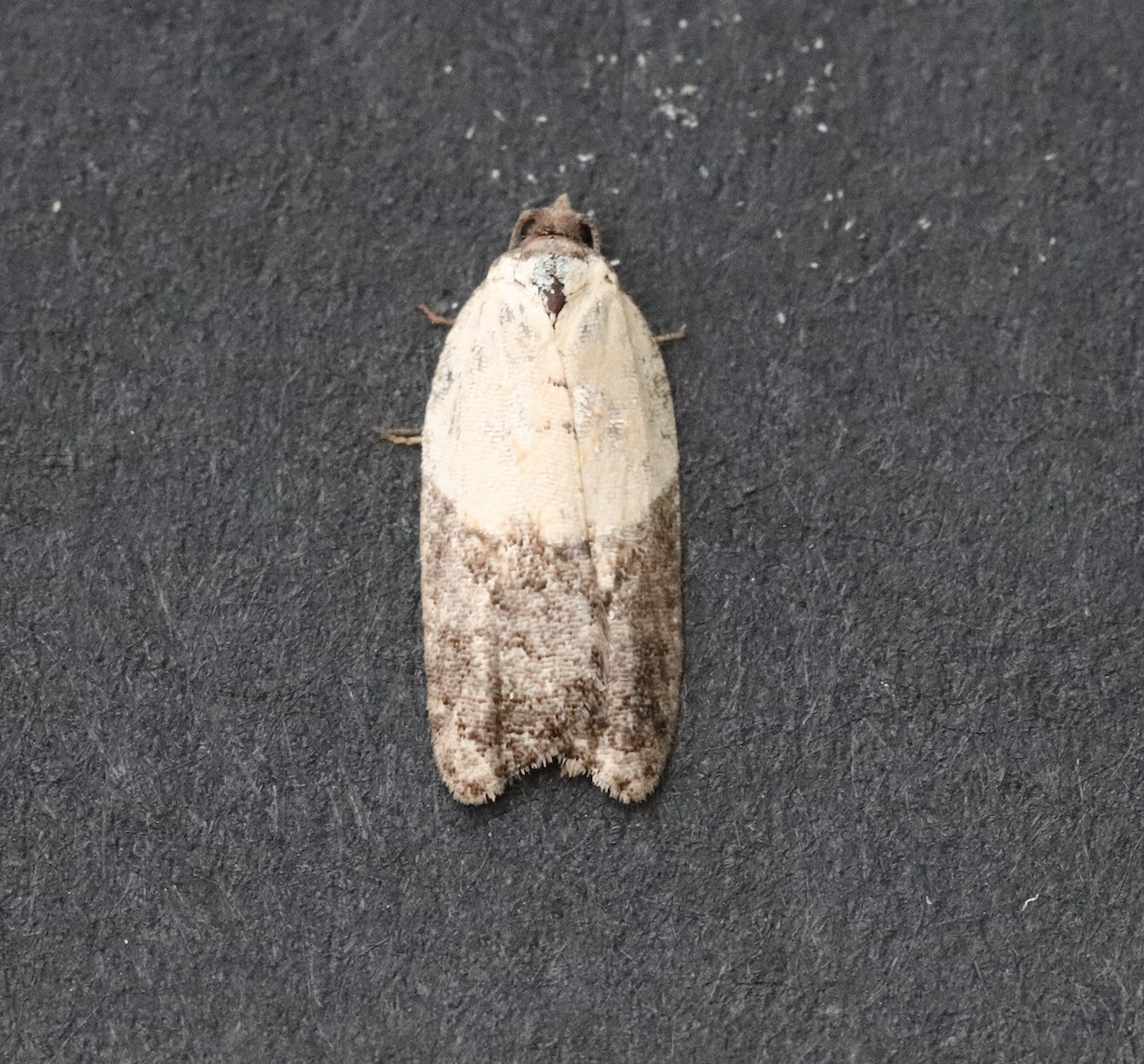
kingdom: Animalia
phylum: Arthropoda
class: Insecta
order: Lepidoptera
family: Tortricidae
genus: Acleris
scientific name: Acleris variegana
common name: Garden rose tortrix
